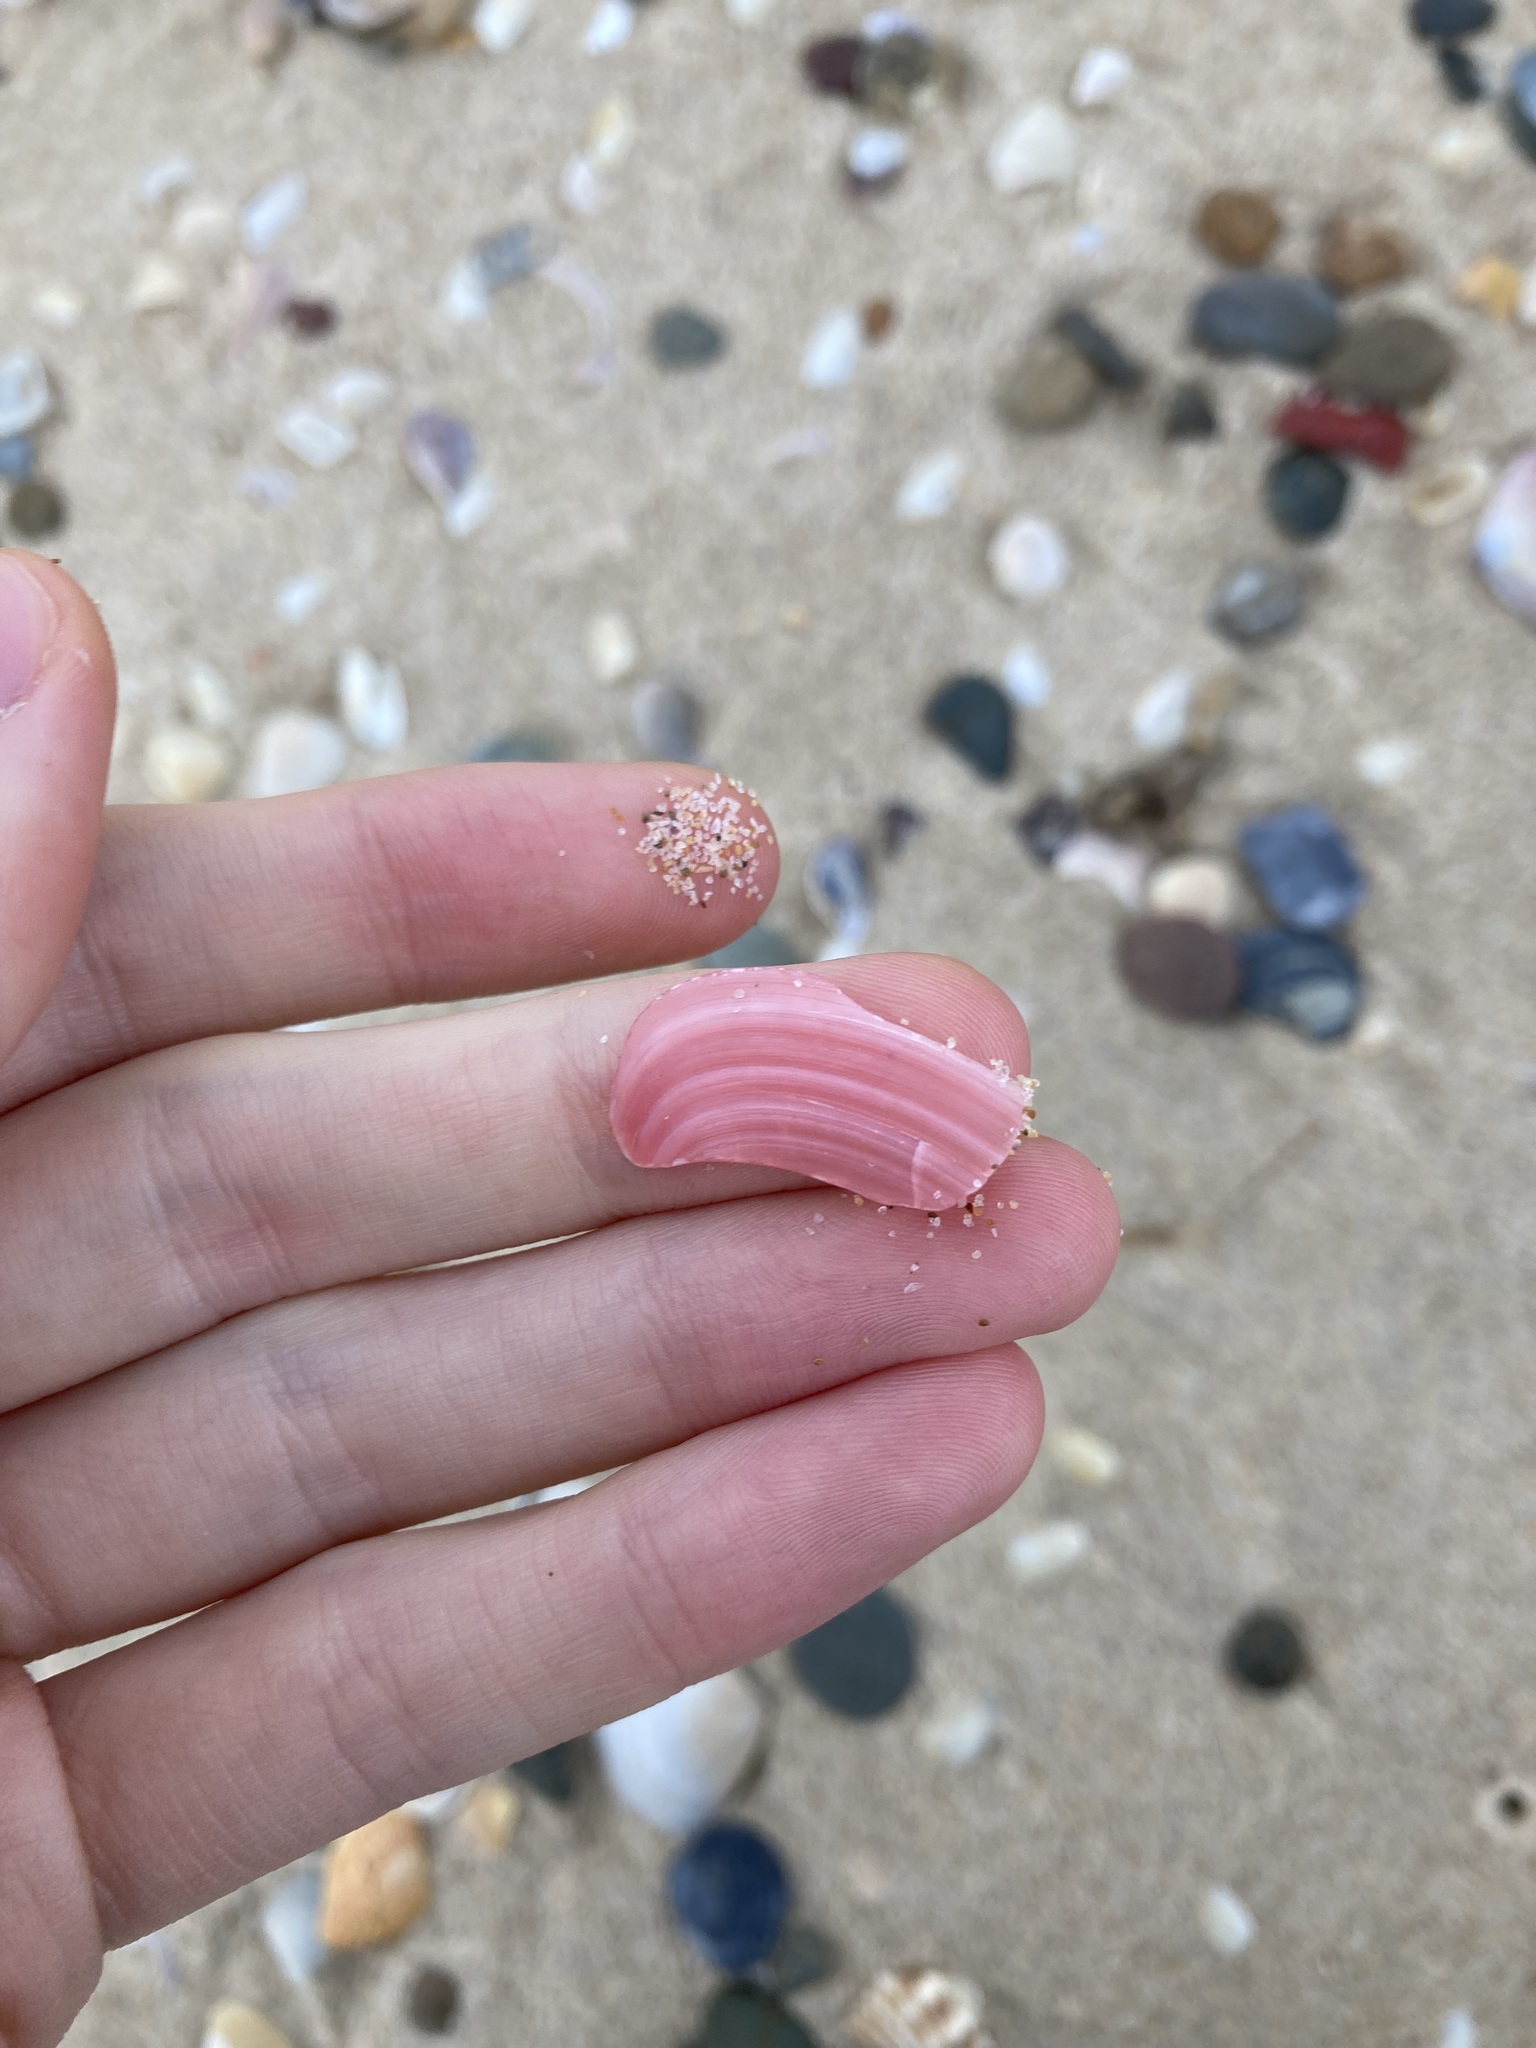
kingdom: Animalia
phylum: Mollusca
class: Bivalvia
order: Cardiida
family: Tellinidae
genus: Tellinota
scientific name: Tellinota albinella
